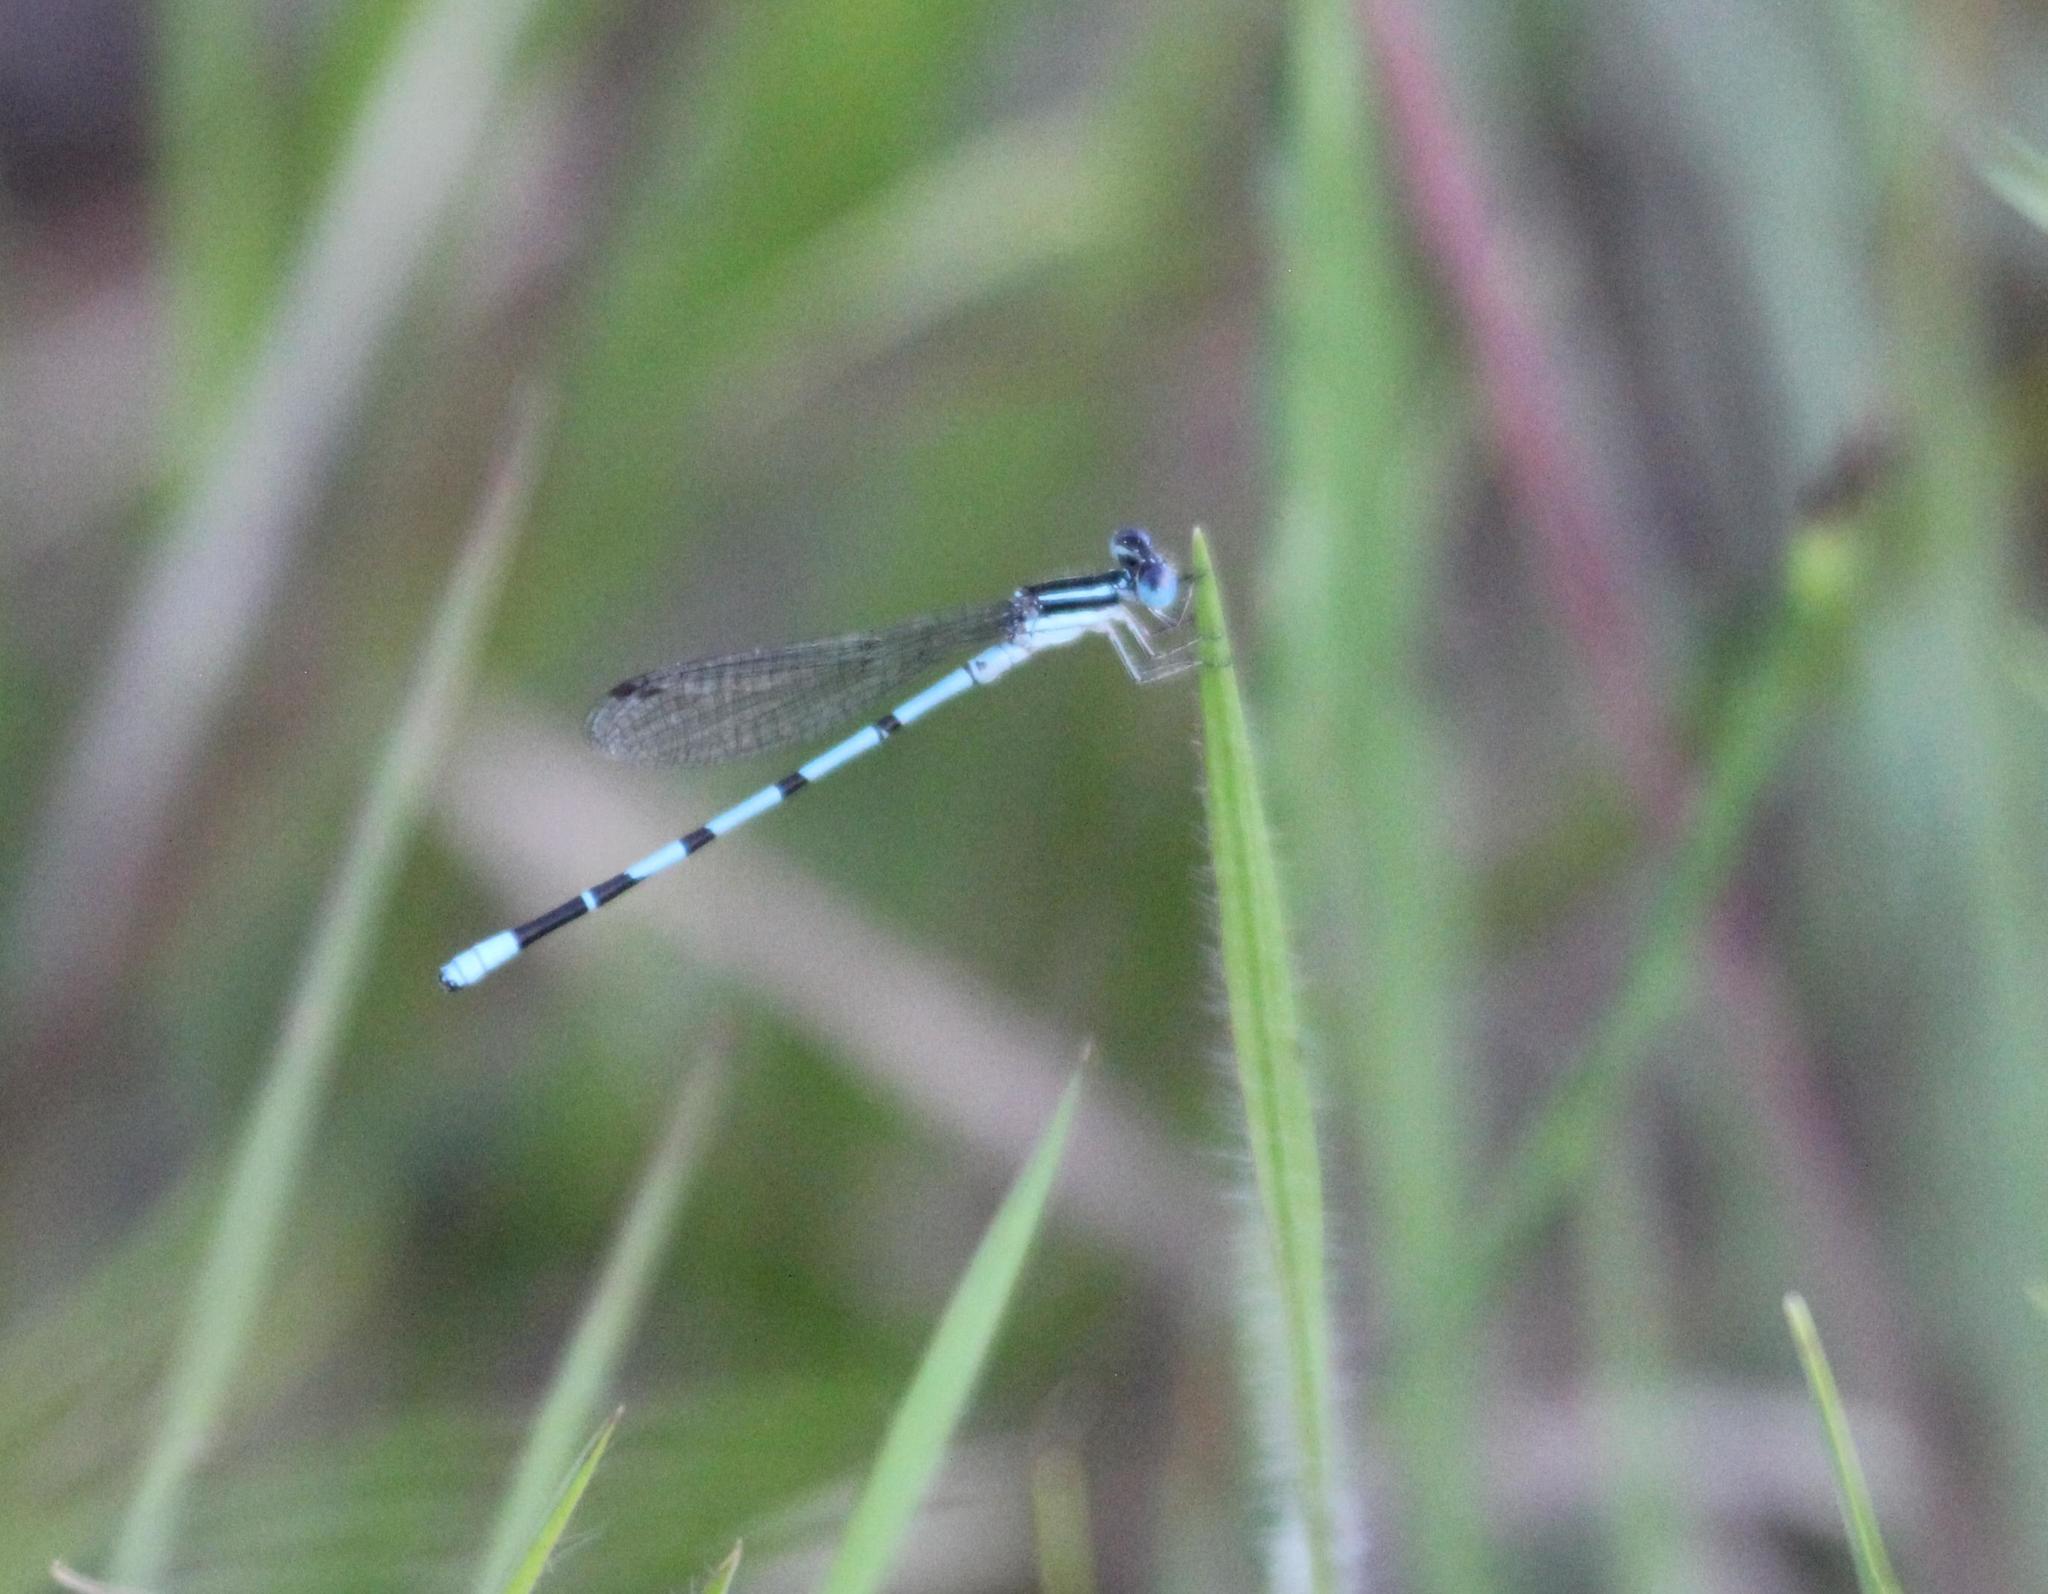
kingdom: Animalia
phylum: Arthropoda
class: Insecta
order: Odonata
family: Coenagrionidae
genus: Argia
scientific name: Argia bipunctulata
